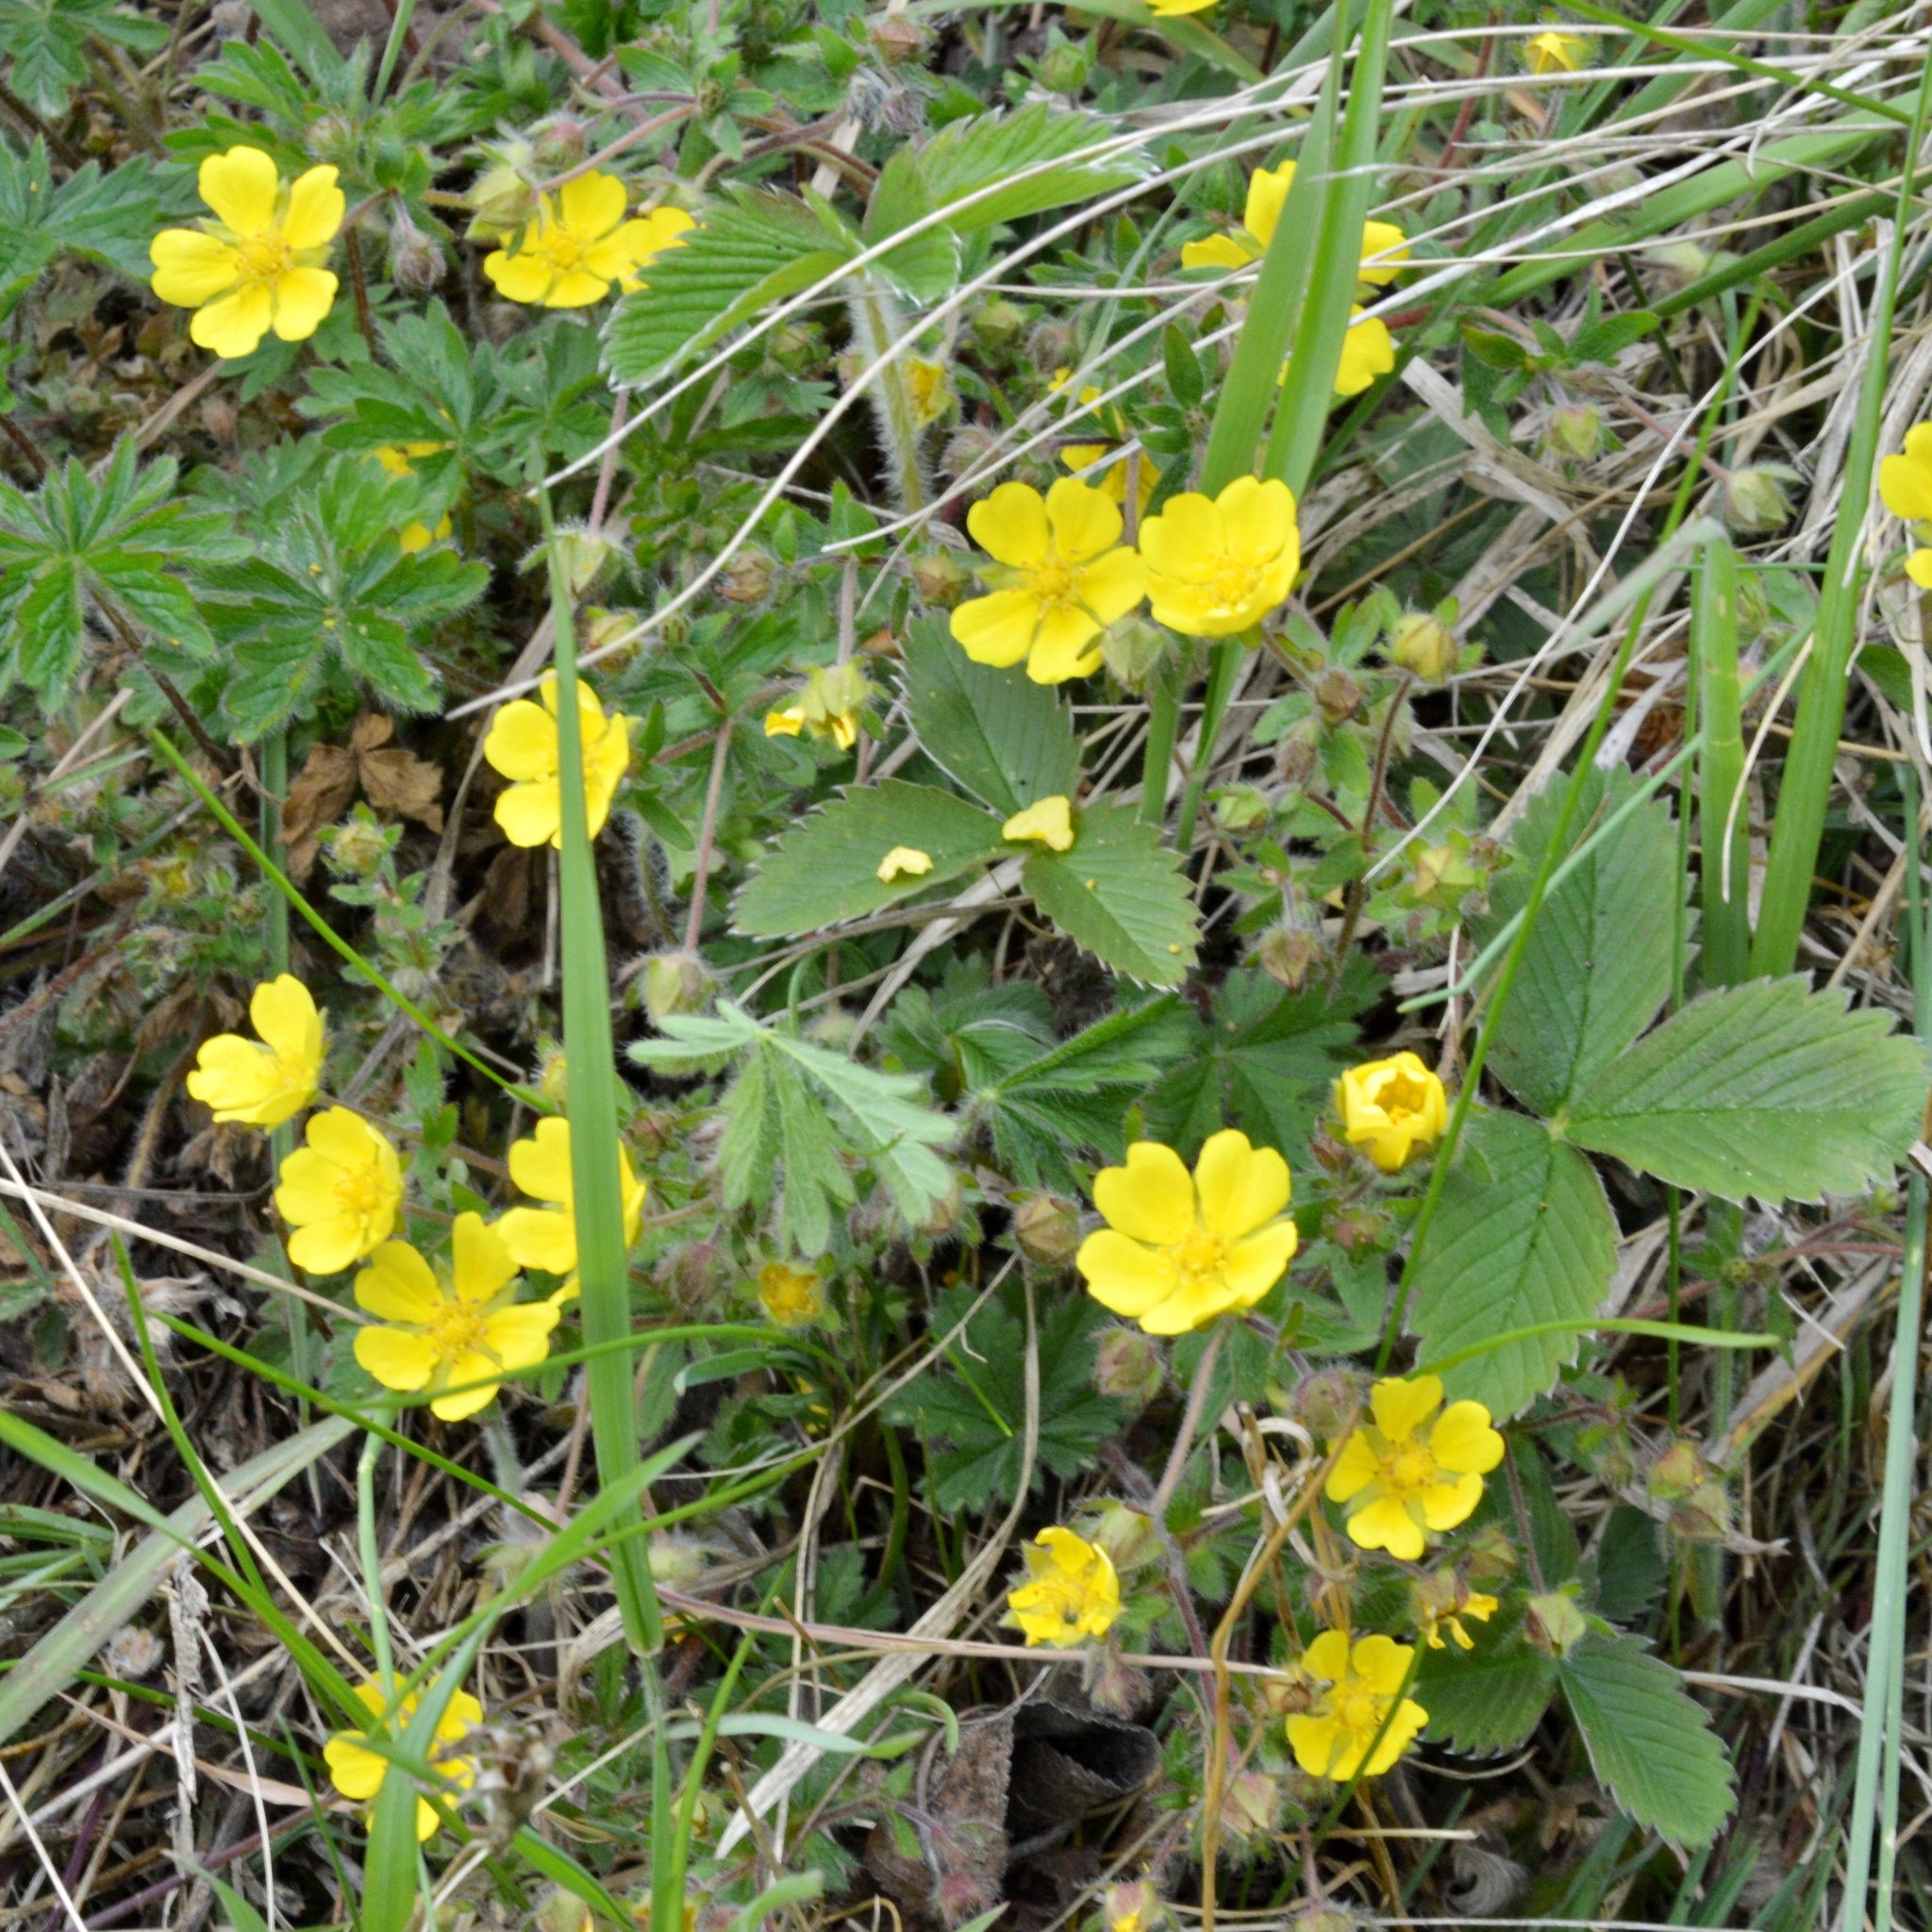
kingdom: Plantae
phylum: Tracheophyta
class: Magnoliopsida
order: Rosales
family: Rosaceae
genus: Potentilla
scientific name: Potentilla heptaphylla
